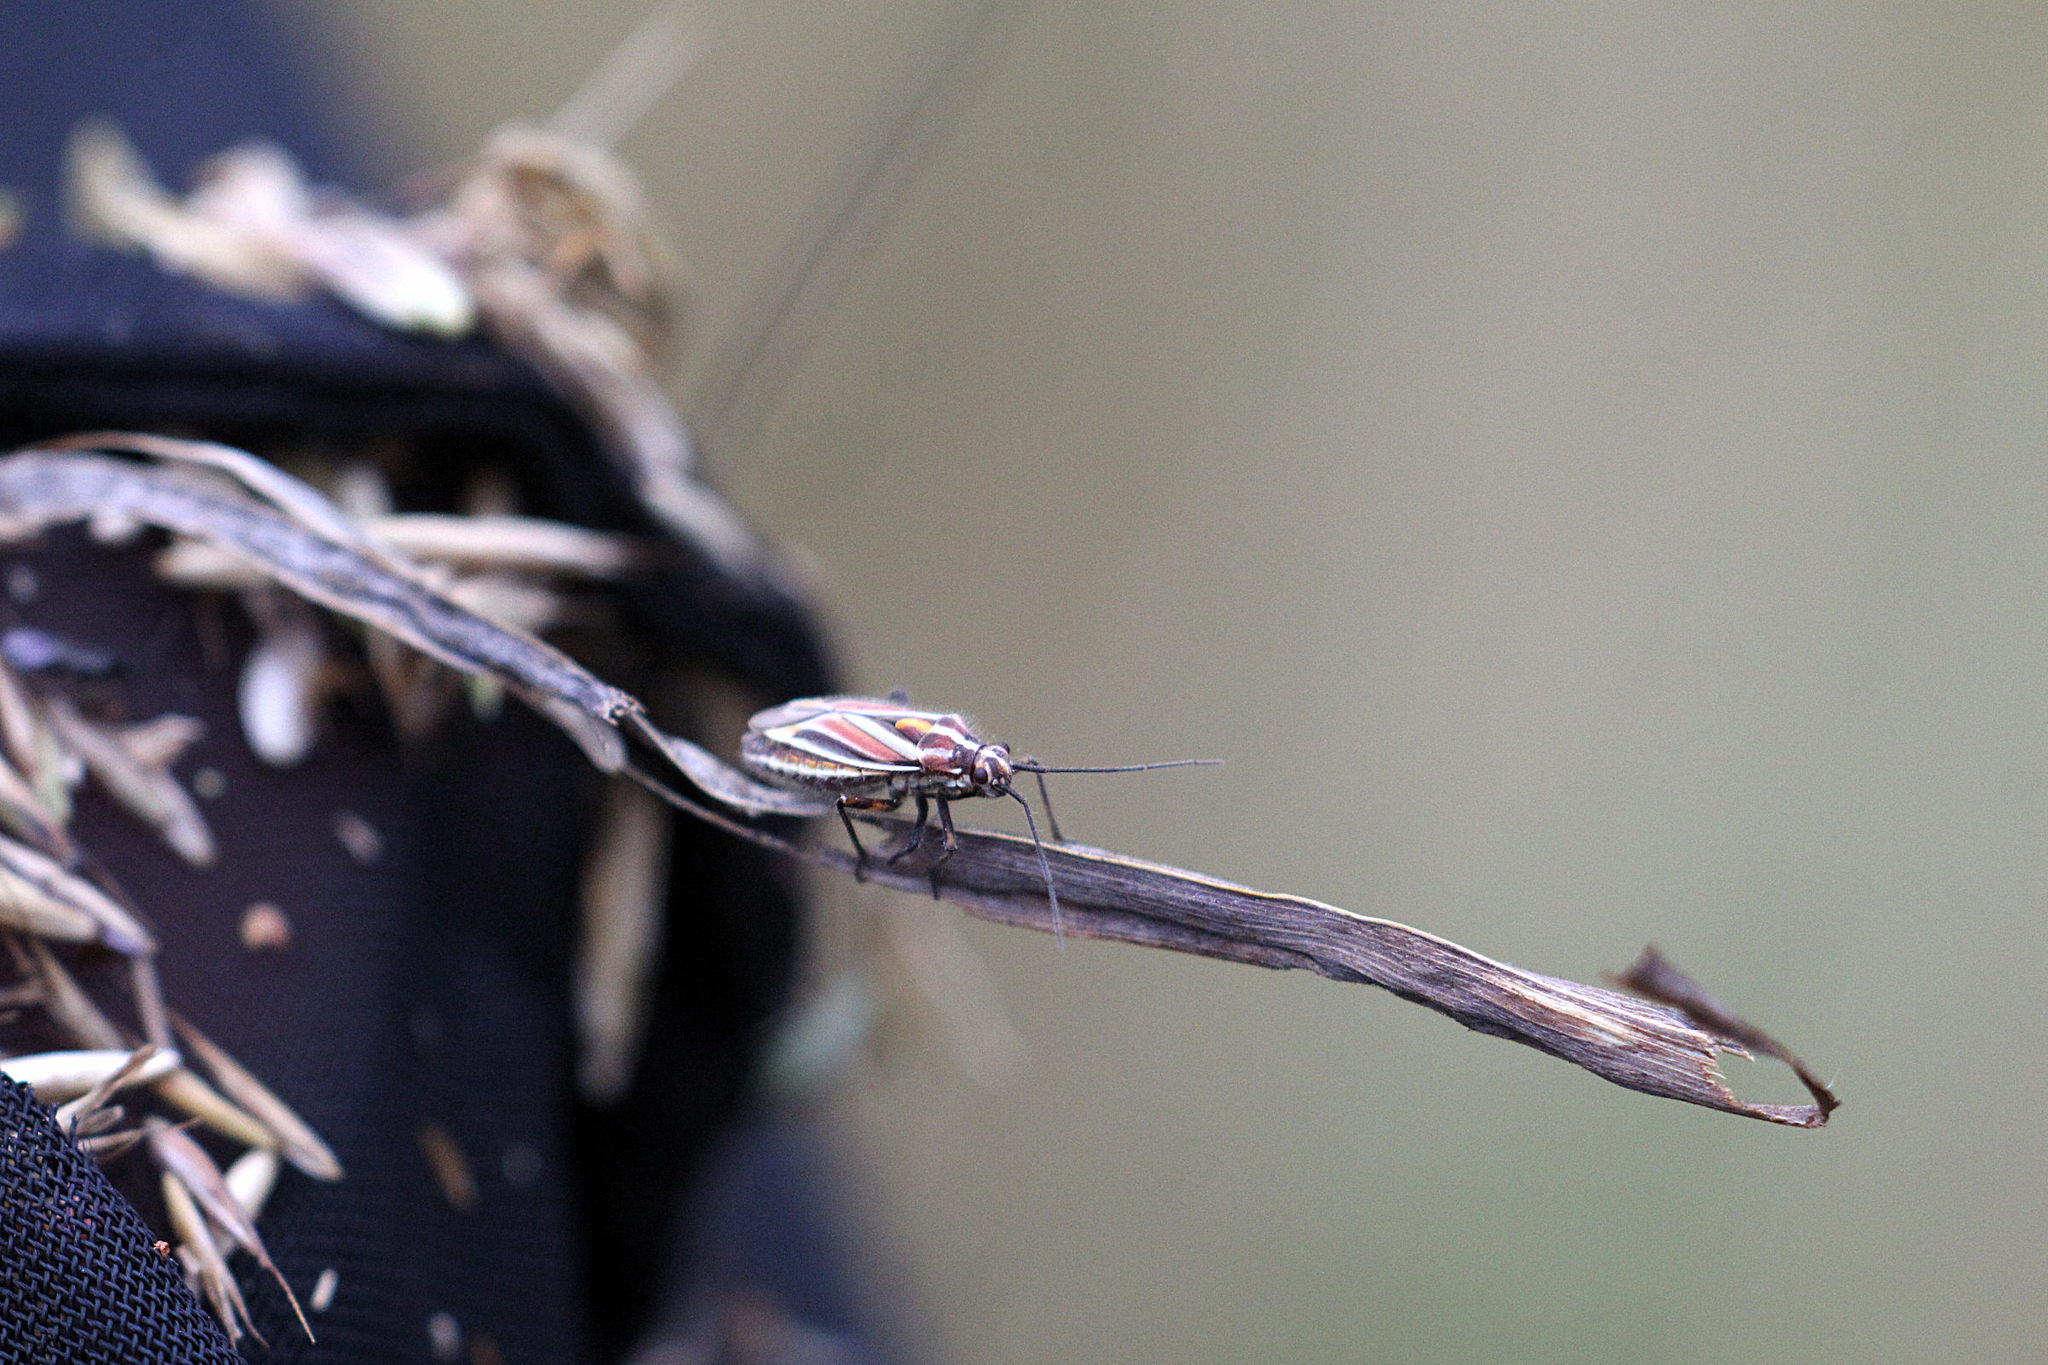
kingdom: Animalia
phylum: Arthropoda
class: Insecta
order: Hemiptera
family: Miridae
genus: Horistus
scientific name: Horistus orientalis
